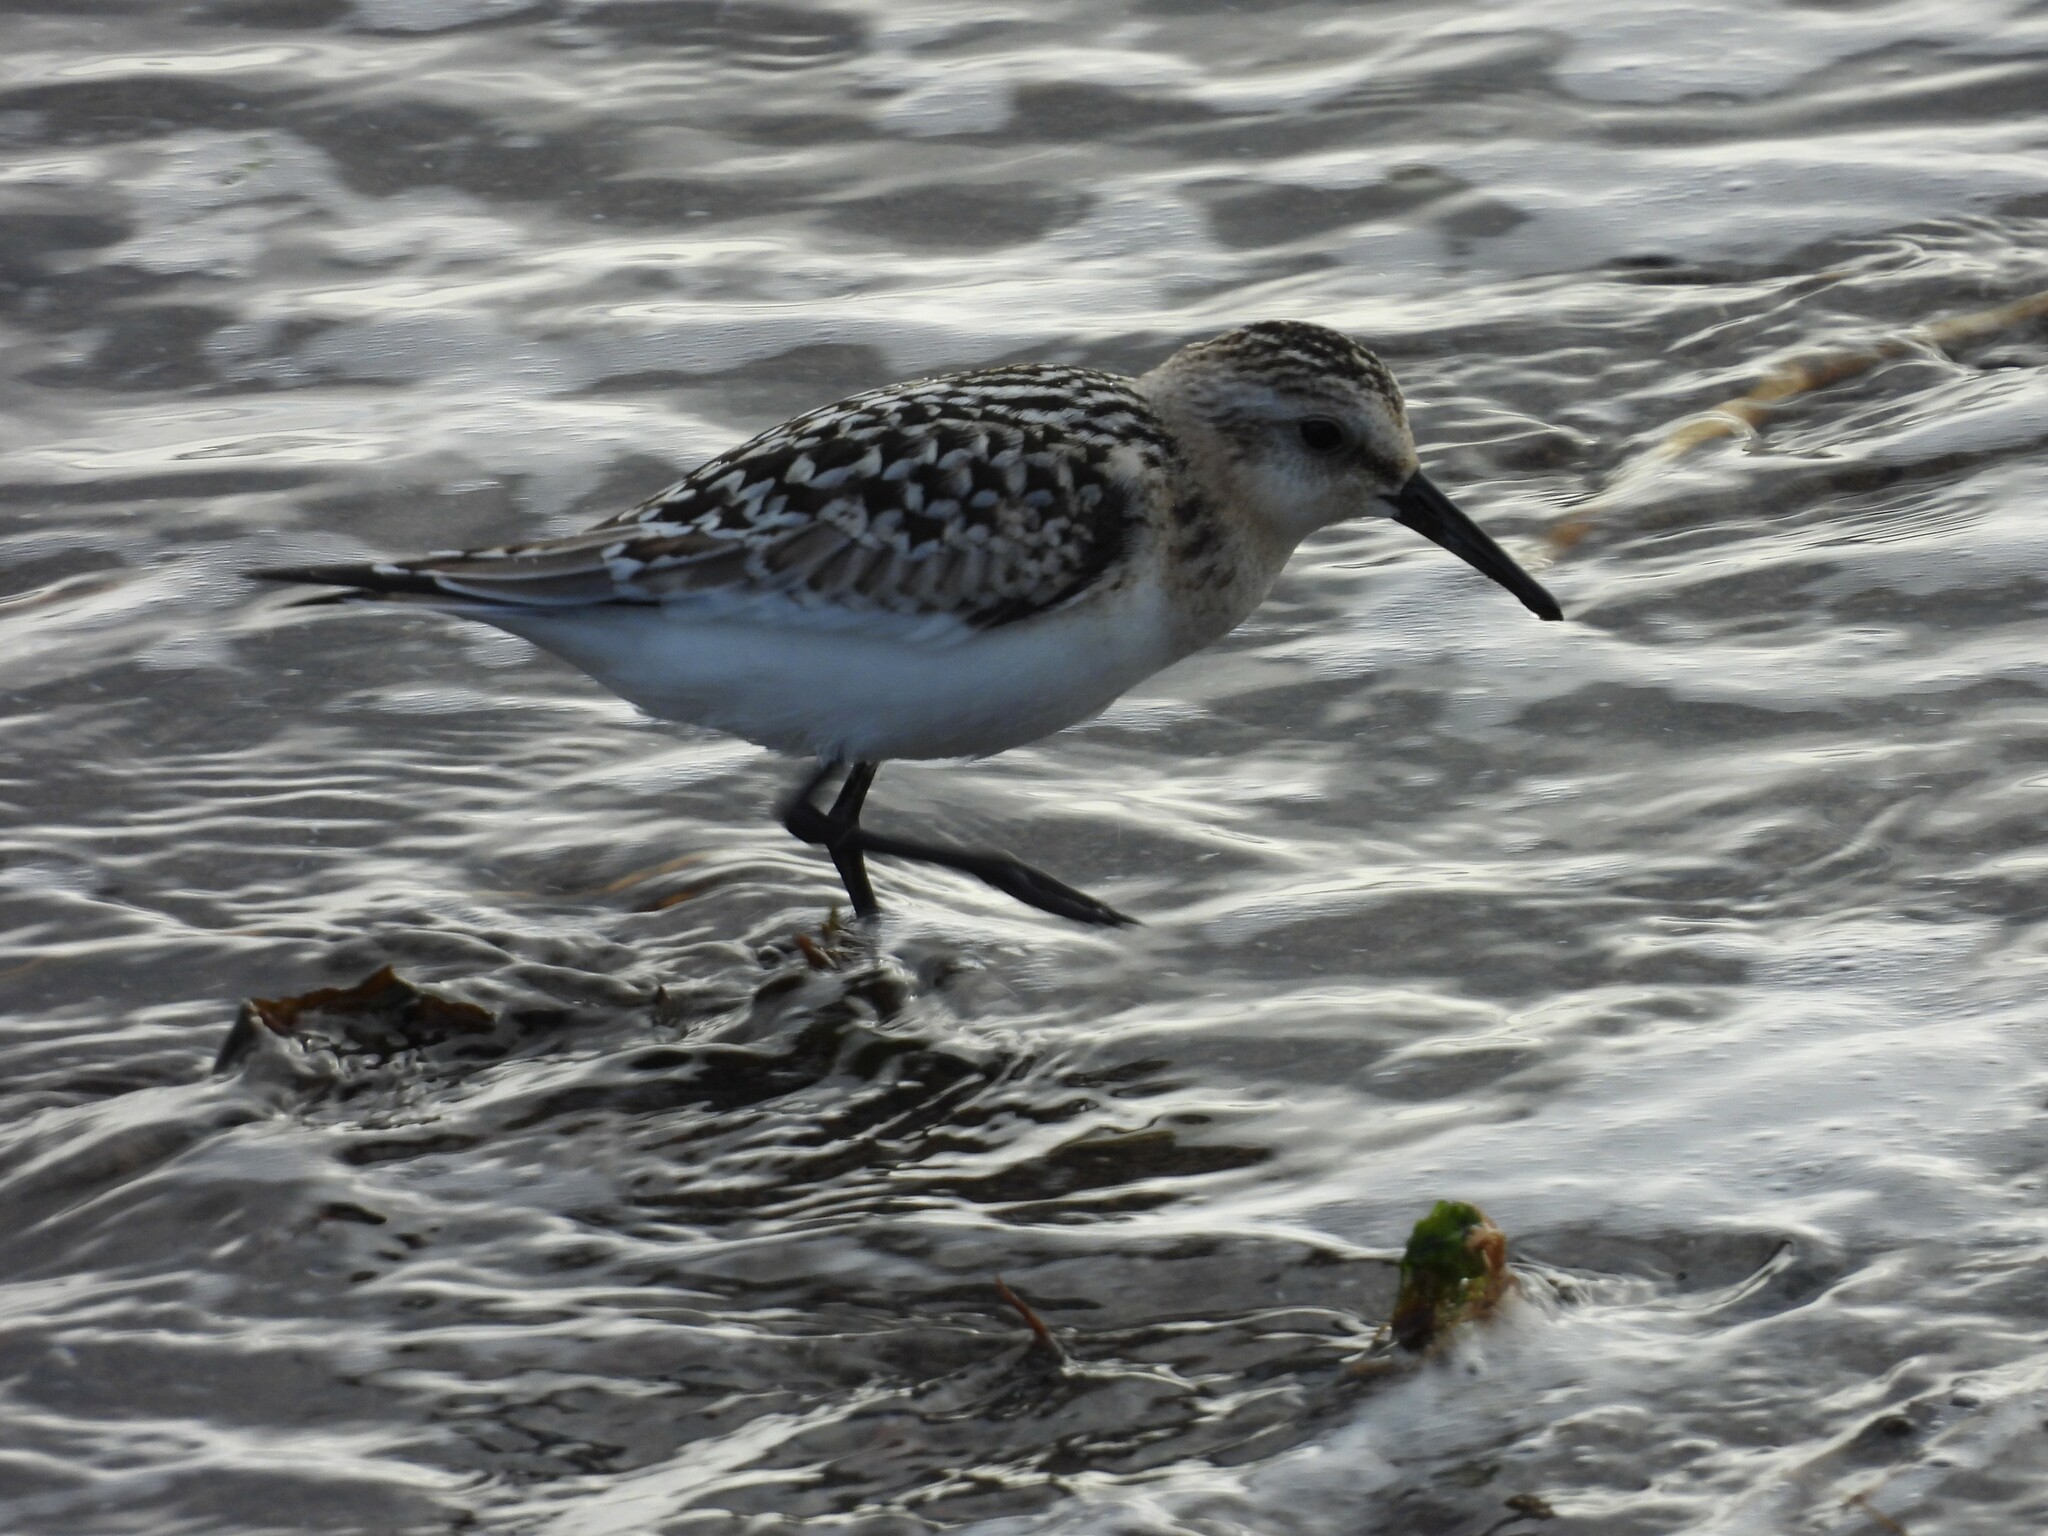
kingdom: Animalia
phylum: Chordata
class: Aves
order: Charadriiformes
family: Scolopacidae
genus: Calidris
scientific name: Calidris alba
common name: Sanderling
